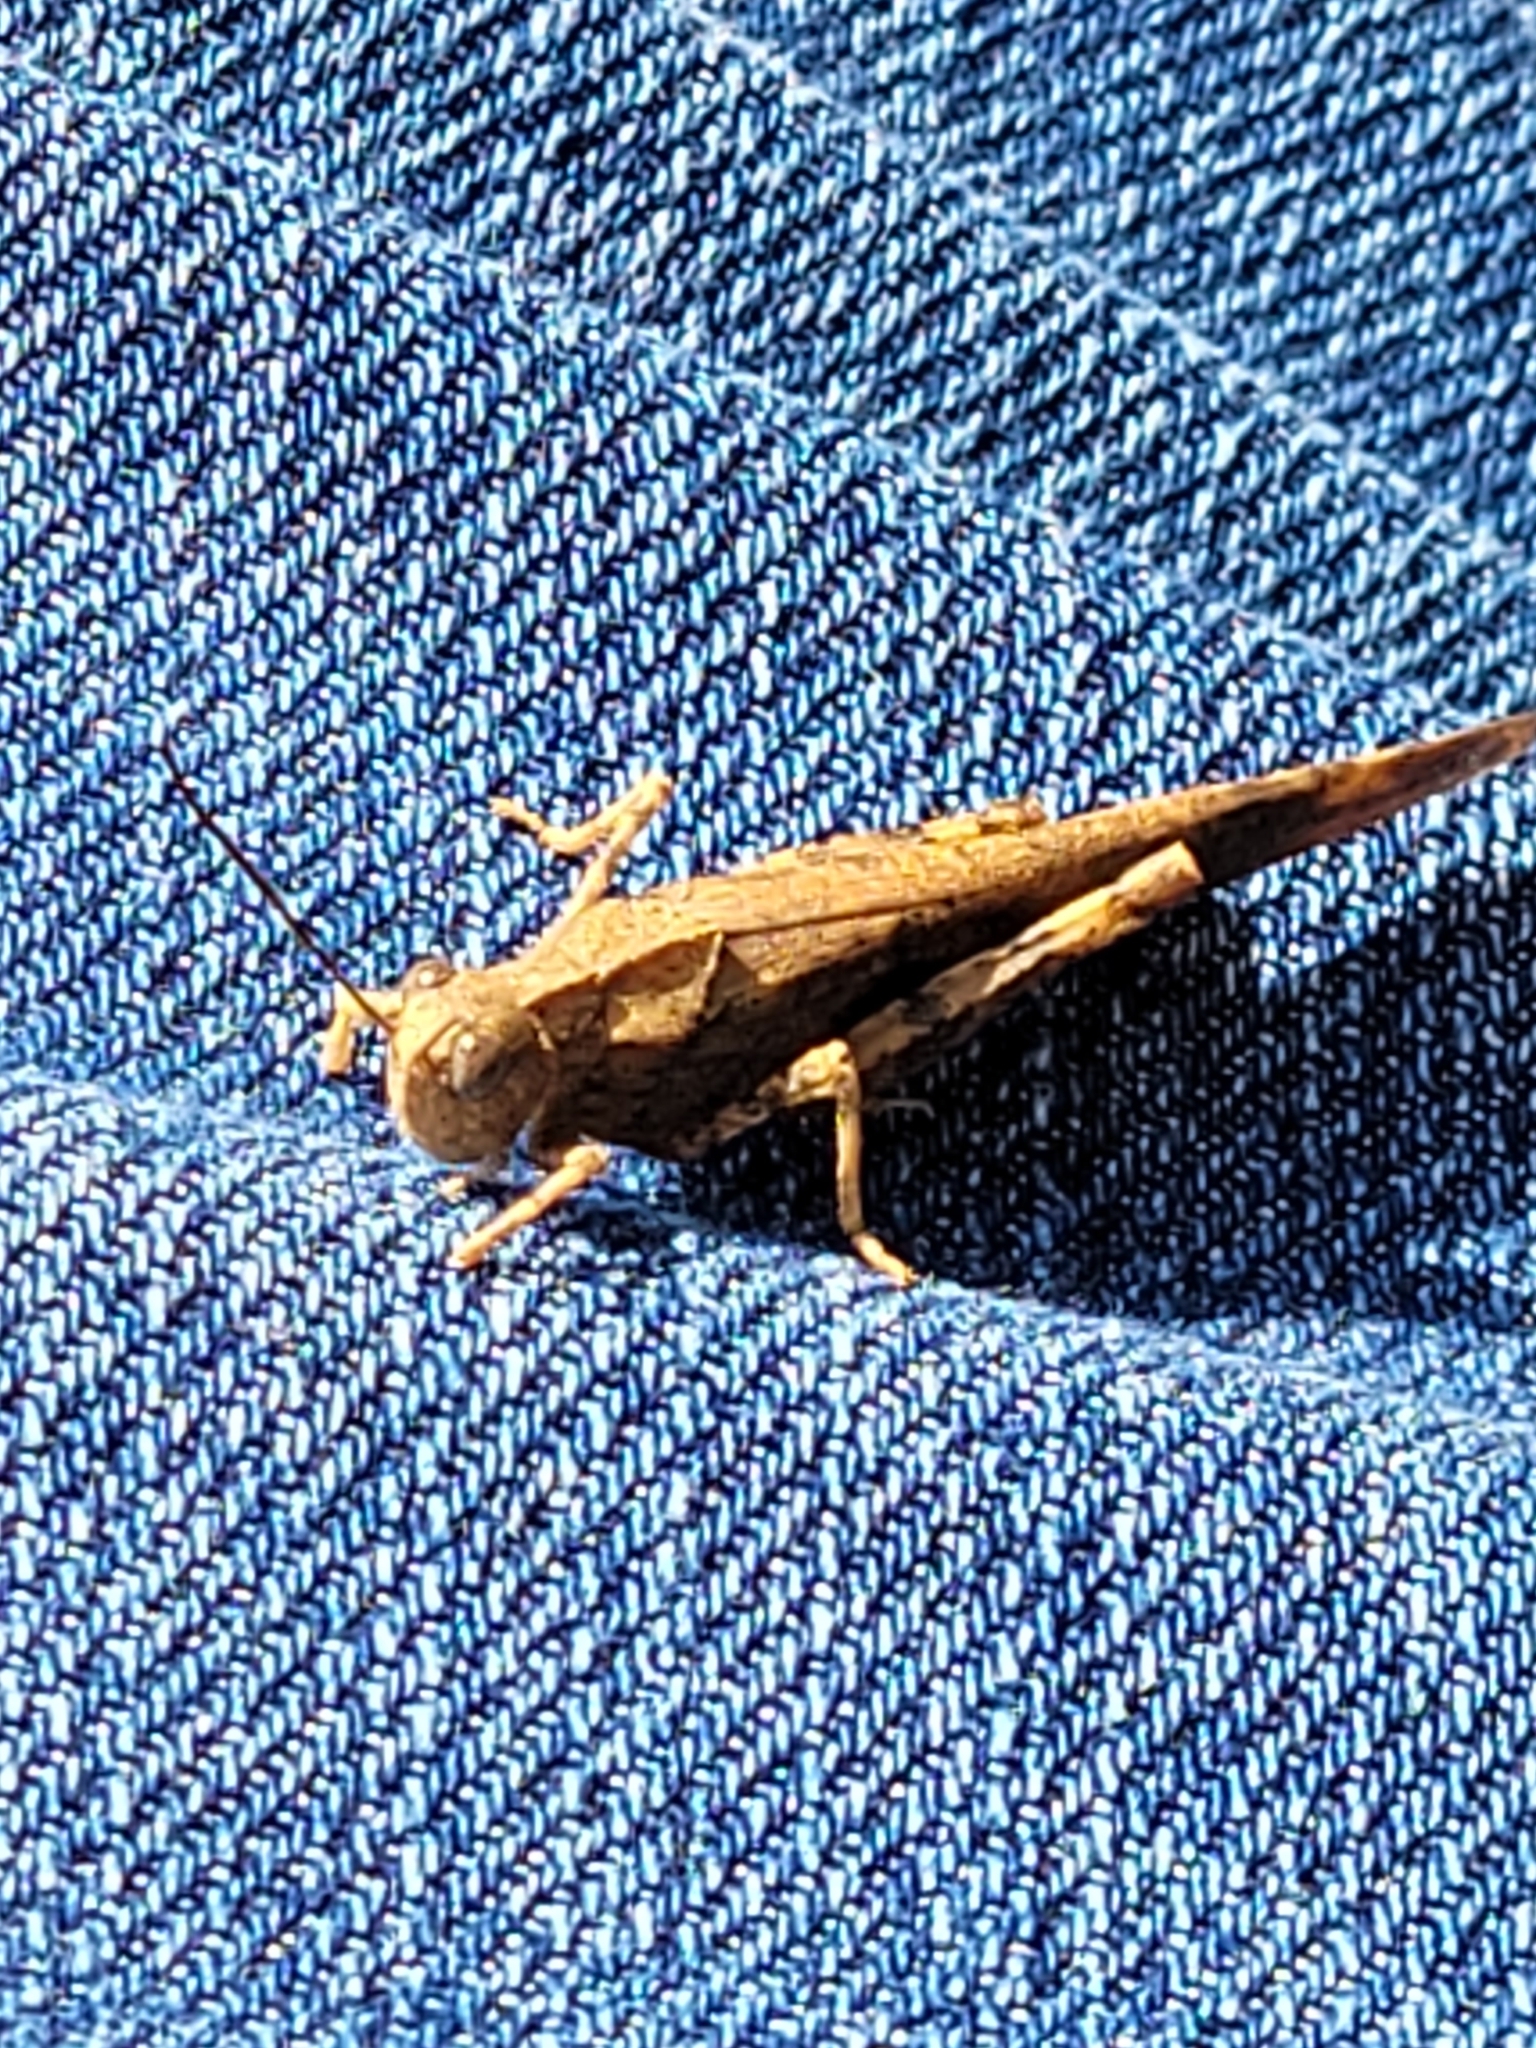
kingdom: Animalia
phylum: Arthropoda
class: Insecta
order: Orthoptera
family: Acrididae
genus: Dissosteira
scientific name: Dissosteira carolina
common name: Carolina grasshopper
